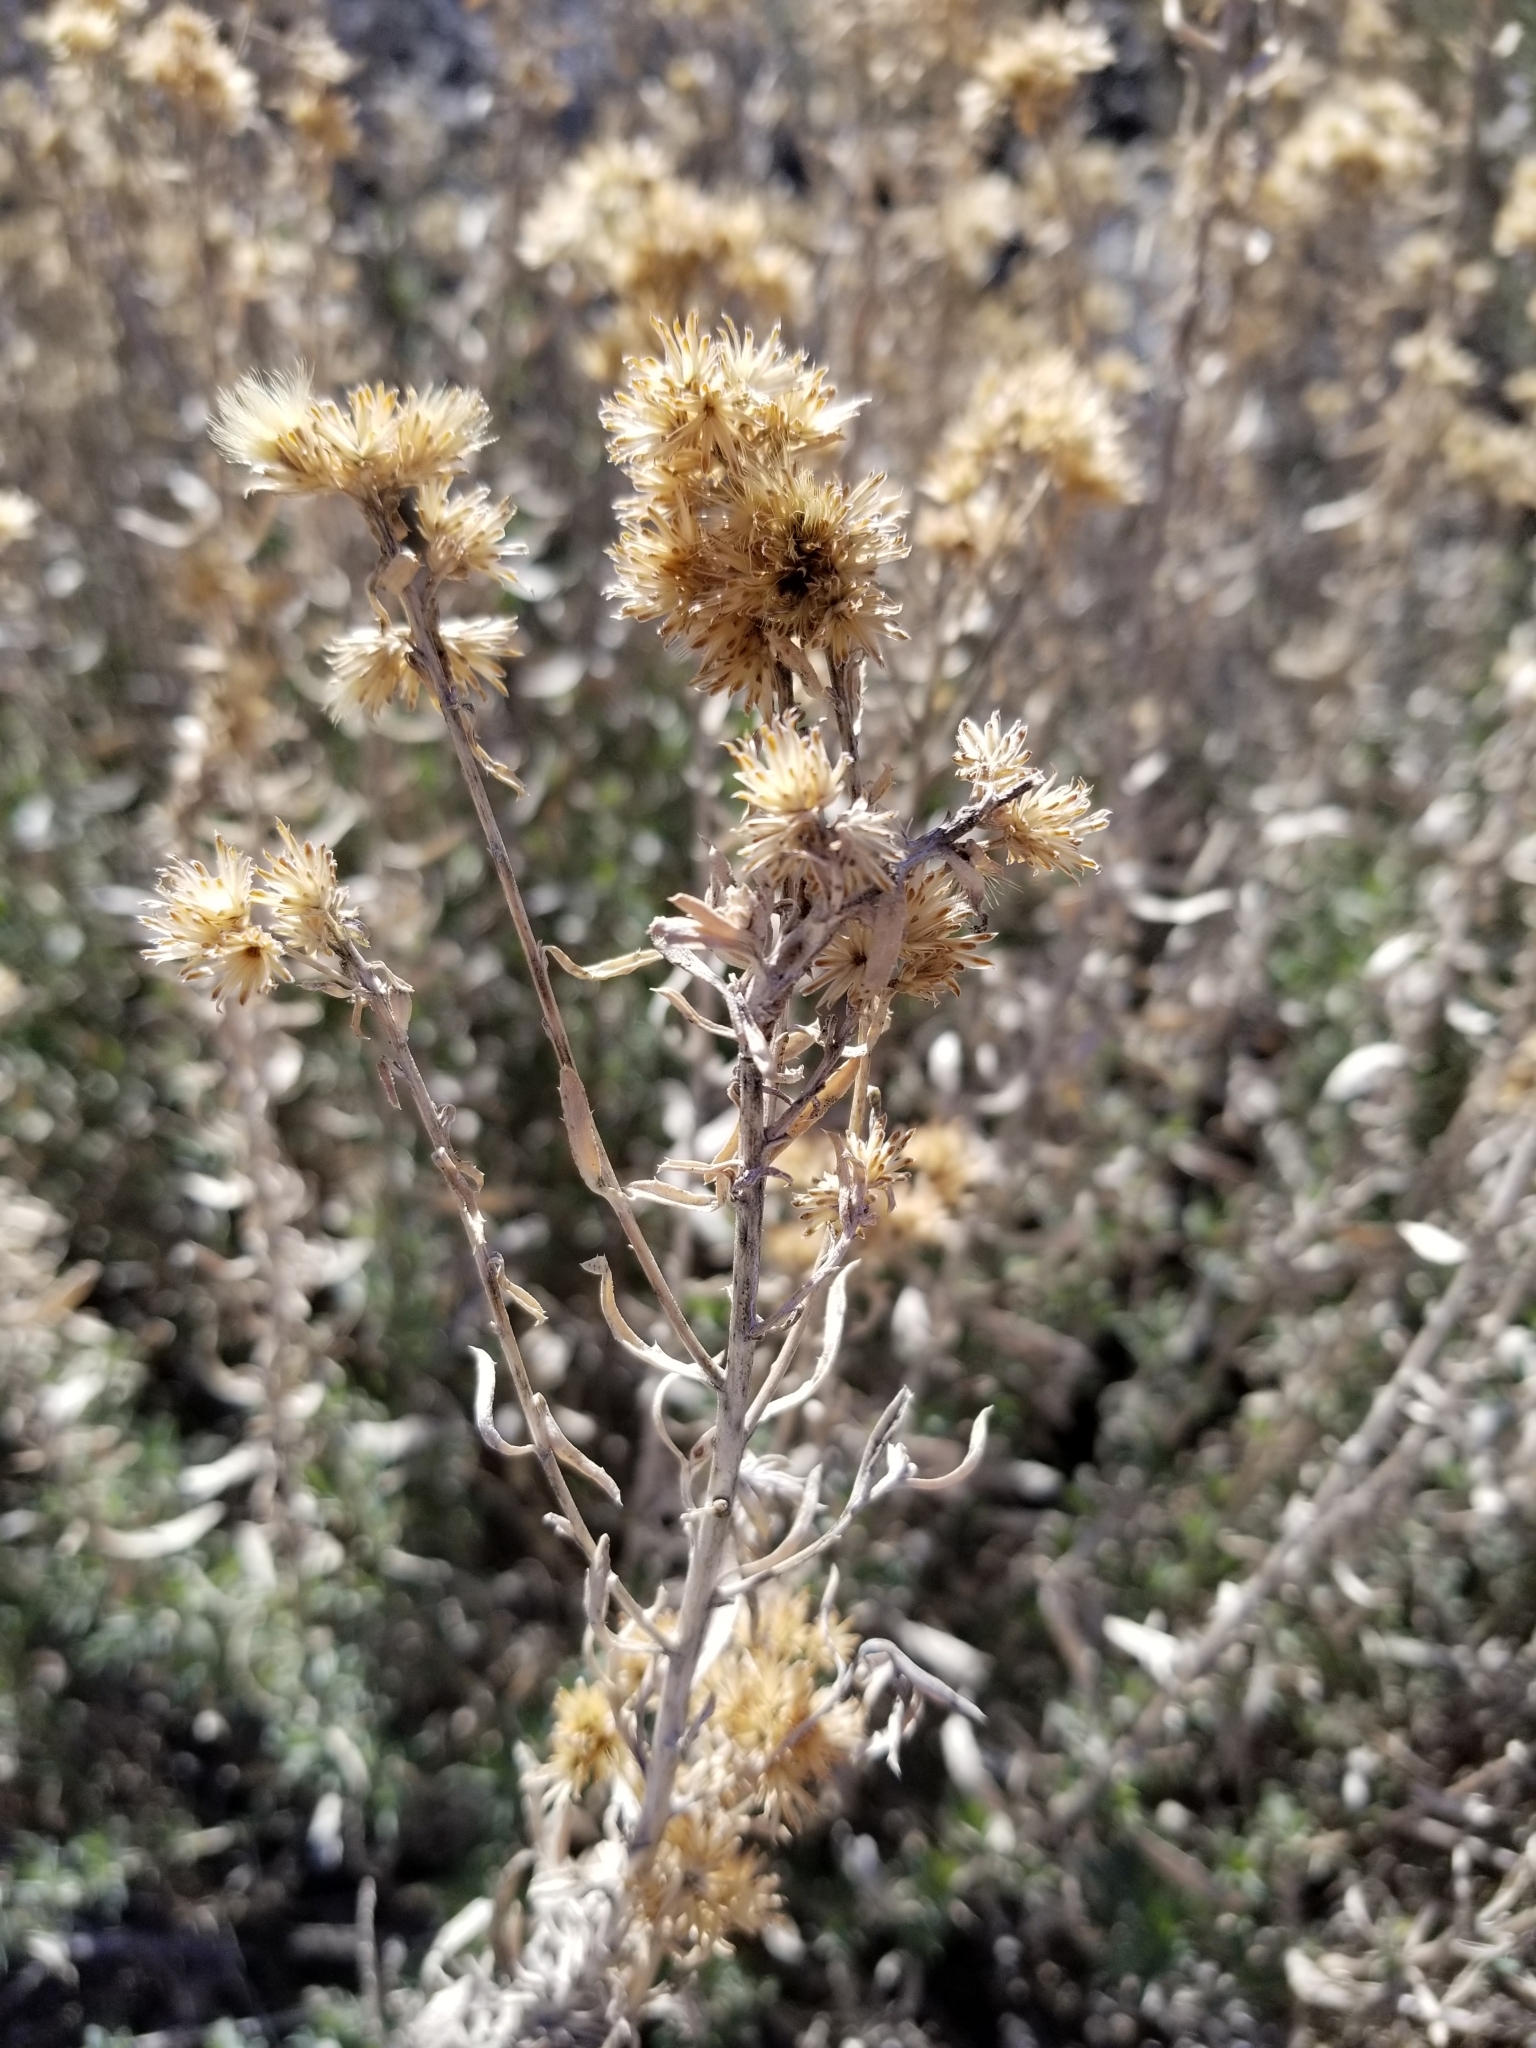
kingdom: Plantae
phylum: Tracheophyta
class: Magnoliopsida
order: Asterales
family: Asteraceae
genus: Isocoma
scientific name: Isocoma acradenia
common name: Alkali jimmyweed
